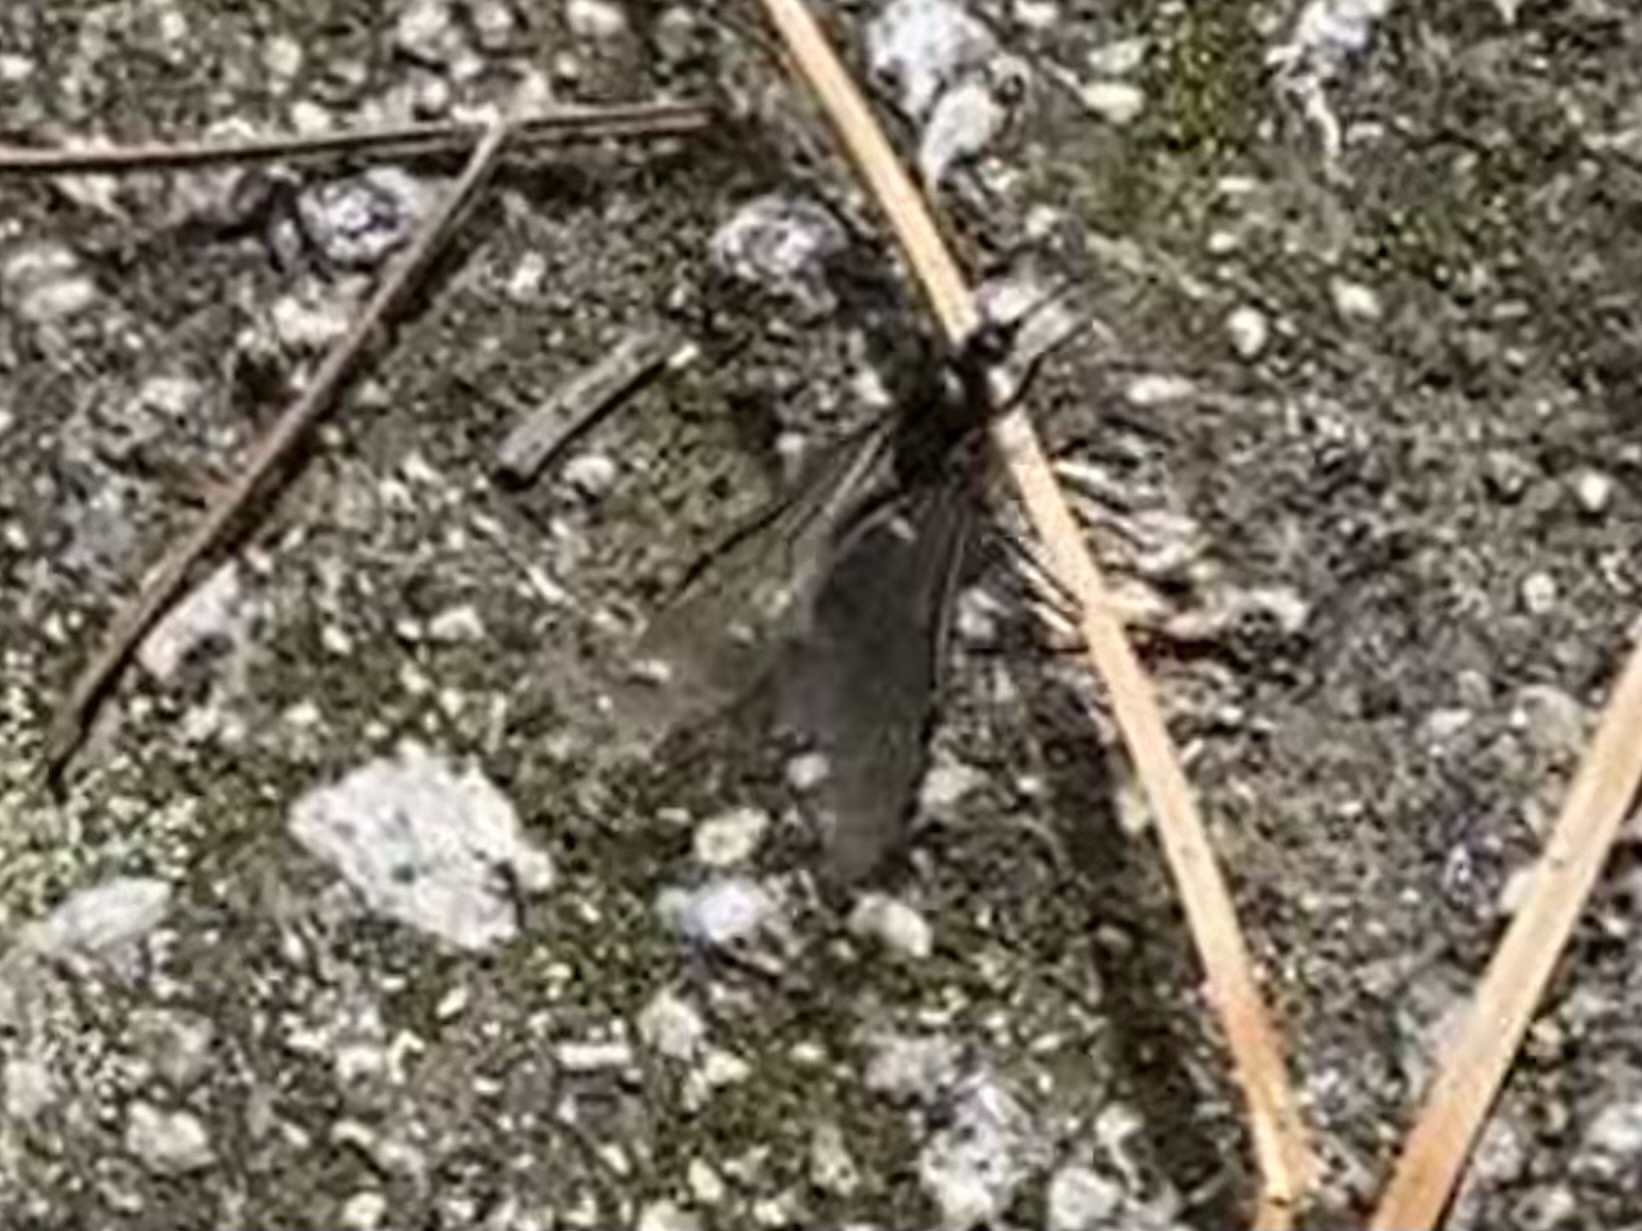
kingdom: Animalia
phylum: Arthropoda
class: Insecta
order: Hymenoptera
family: Formicidae
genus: Liometopum
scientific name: Liometopum apiculatum
